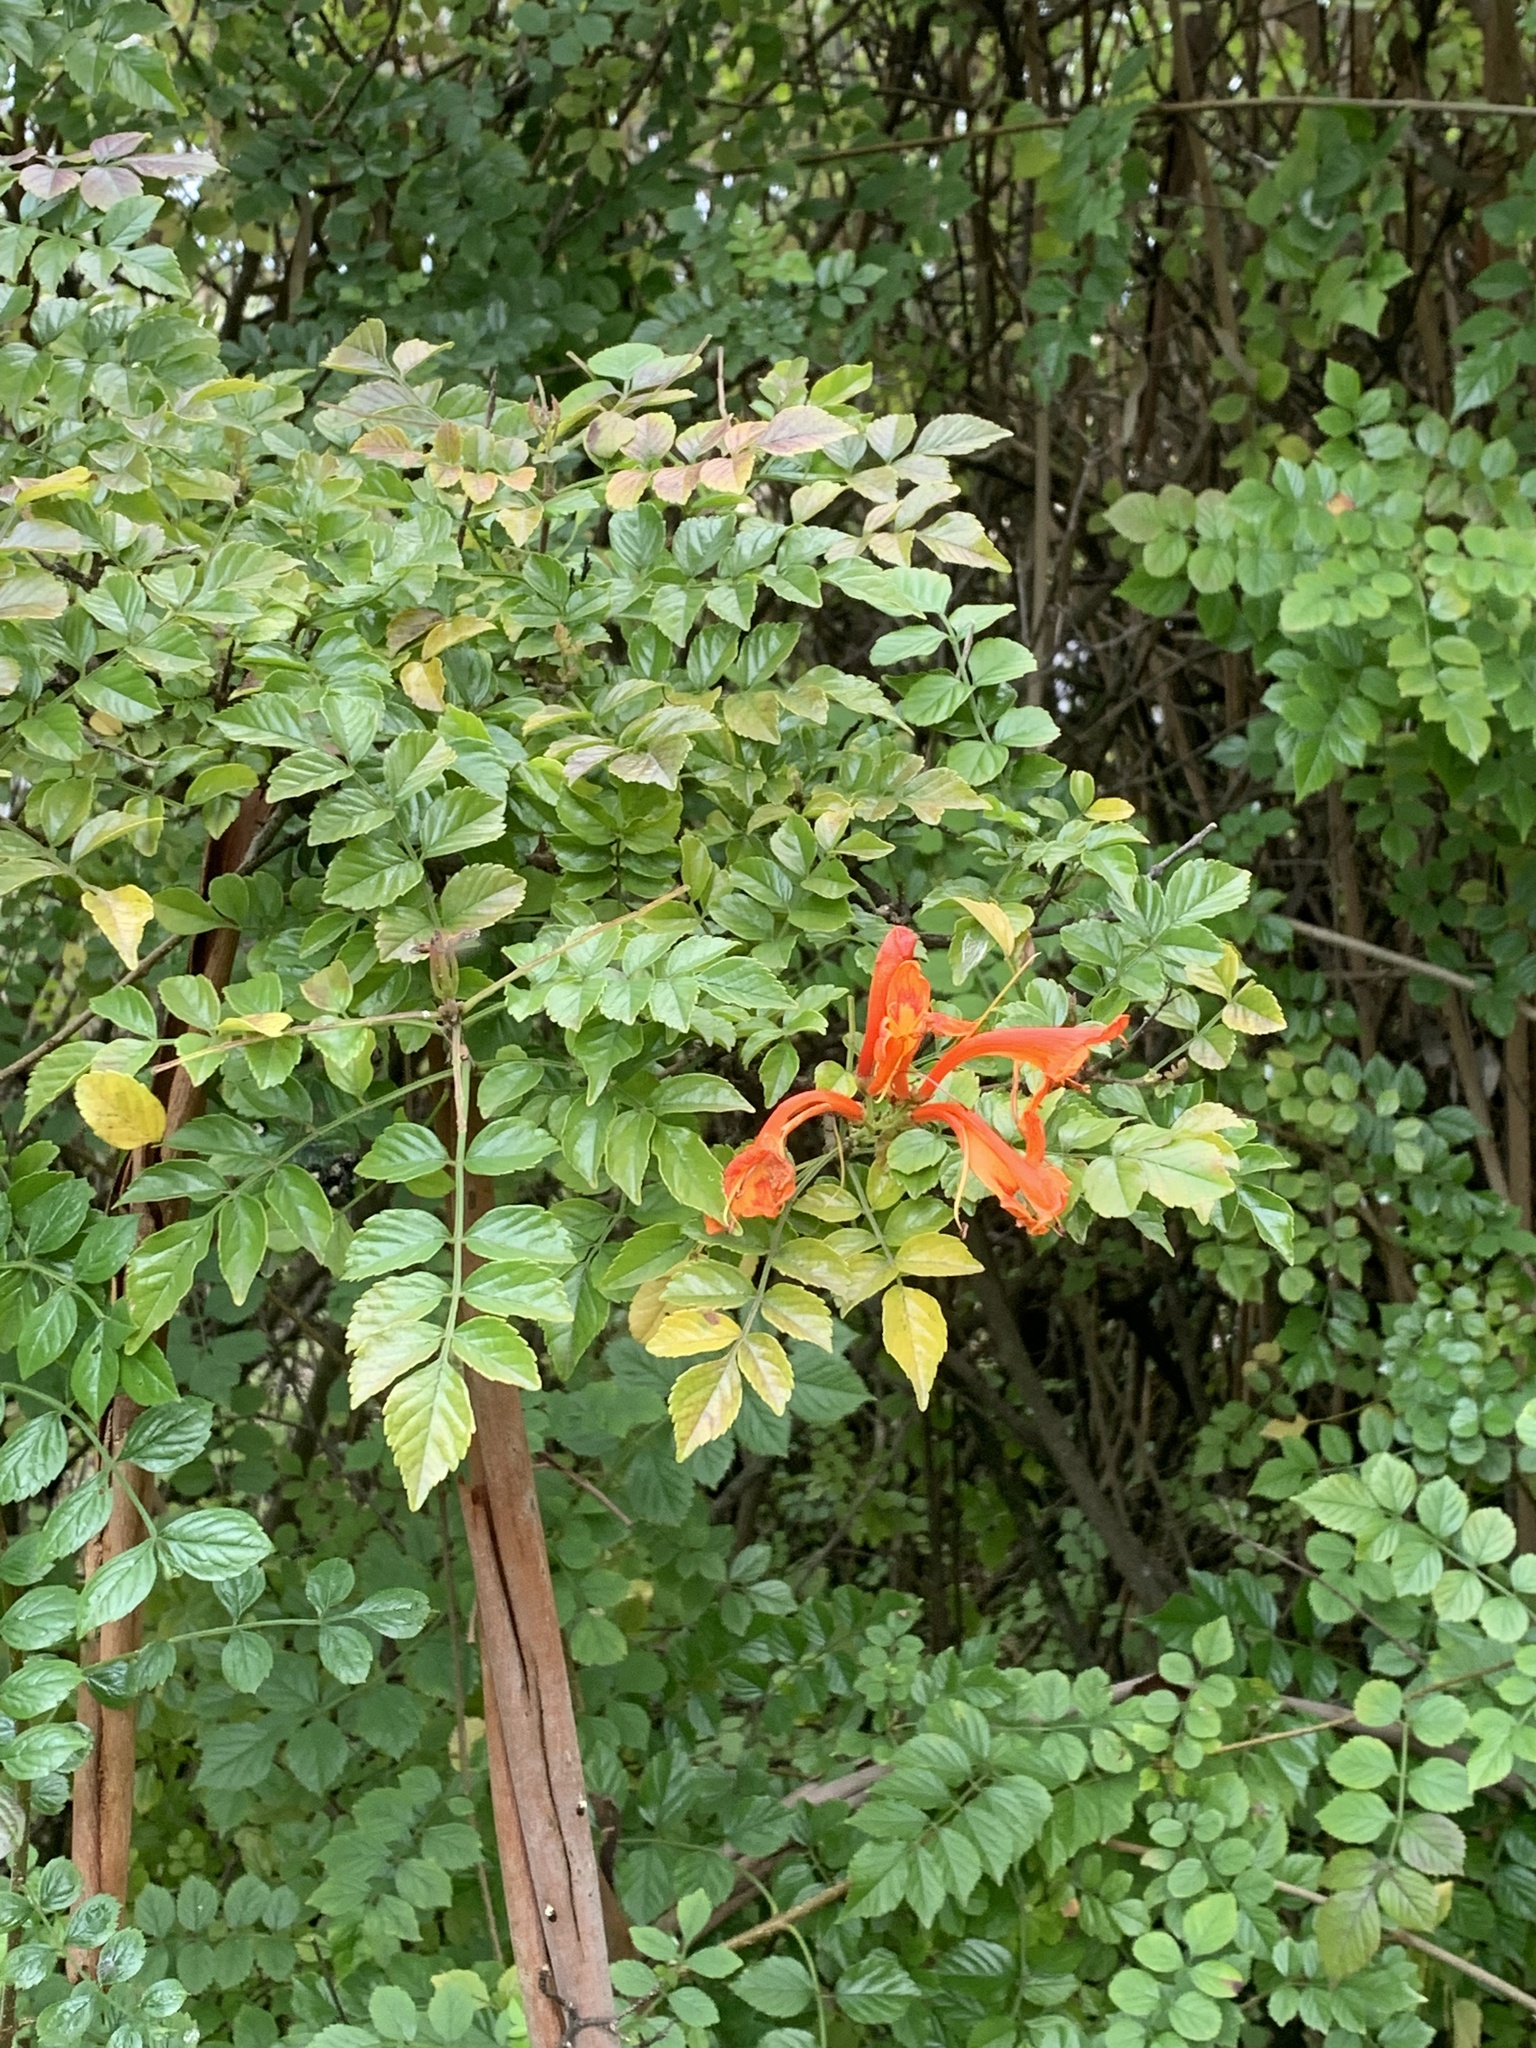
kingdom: Plantae
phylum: Tracheophyta
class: Magnoliopsida
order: Lamiales
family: Bignoniaceae
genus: Tecomaria
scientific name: Tecomaria capensis
